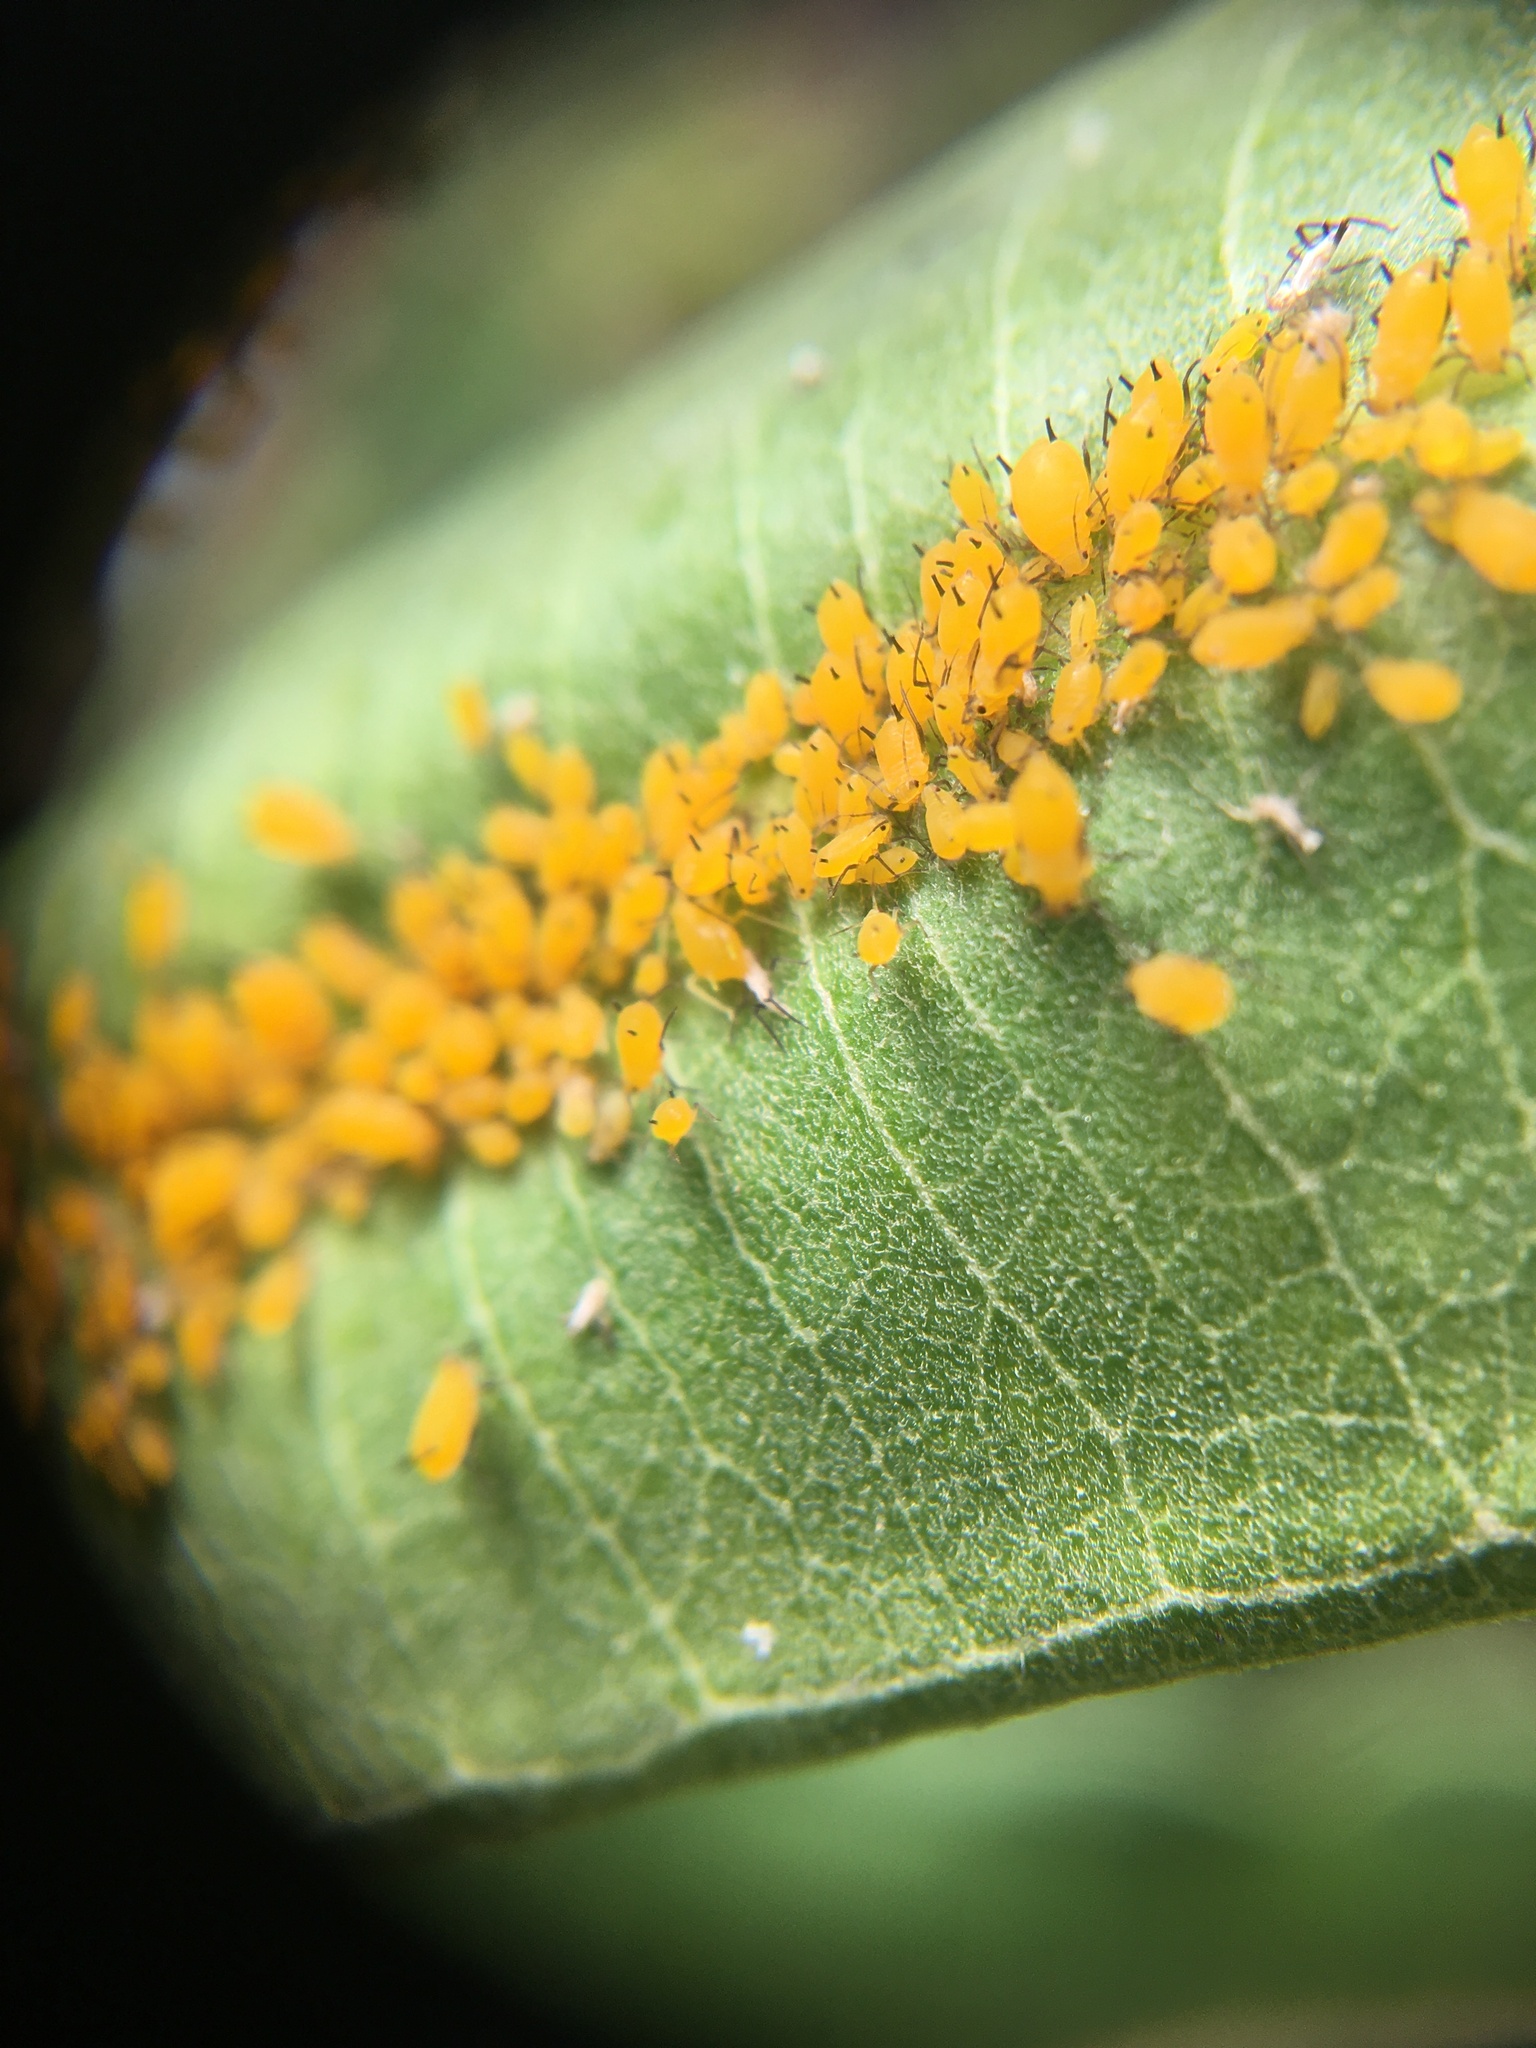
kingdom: Animalia
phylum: Arthropoda
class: Insecta
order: Hemiptera
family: Aphididae
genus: Aphis
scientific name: Aphis nerii
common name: Oleander aphid
